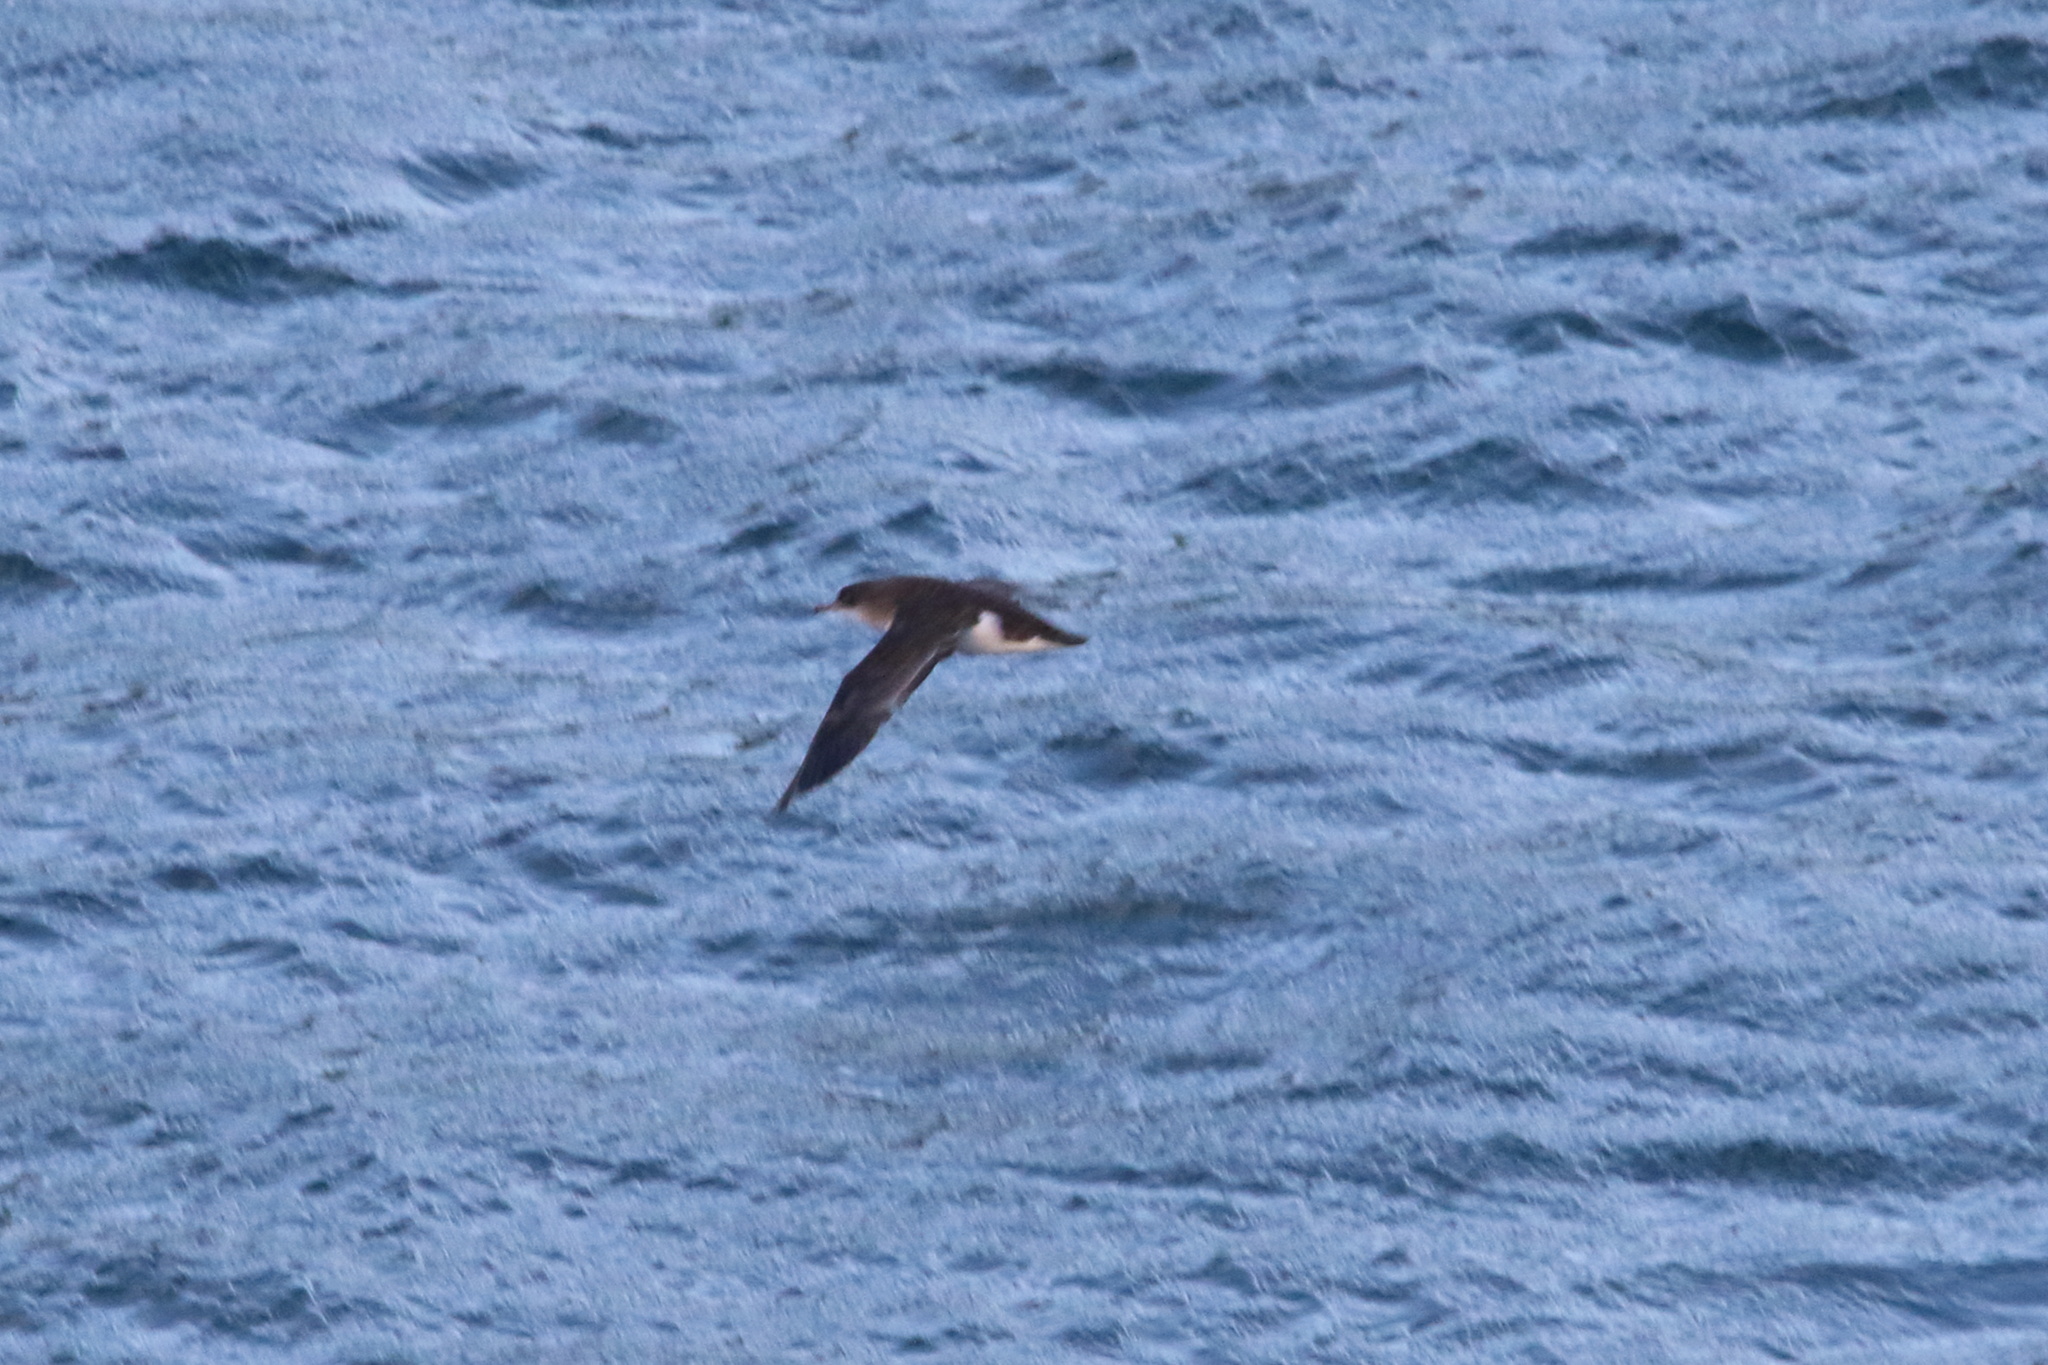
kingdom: Animalia
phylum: Chordata
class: Aves
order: Procellariiformes
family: Procellariidae
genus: Puffinus
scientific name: Puffinus gavia
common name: Fluttering shearwater
